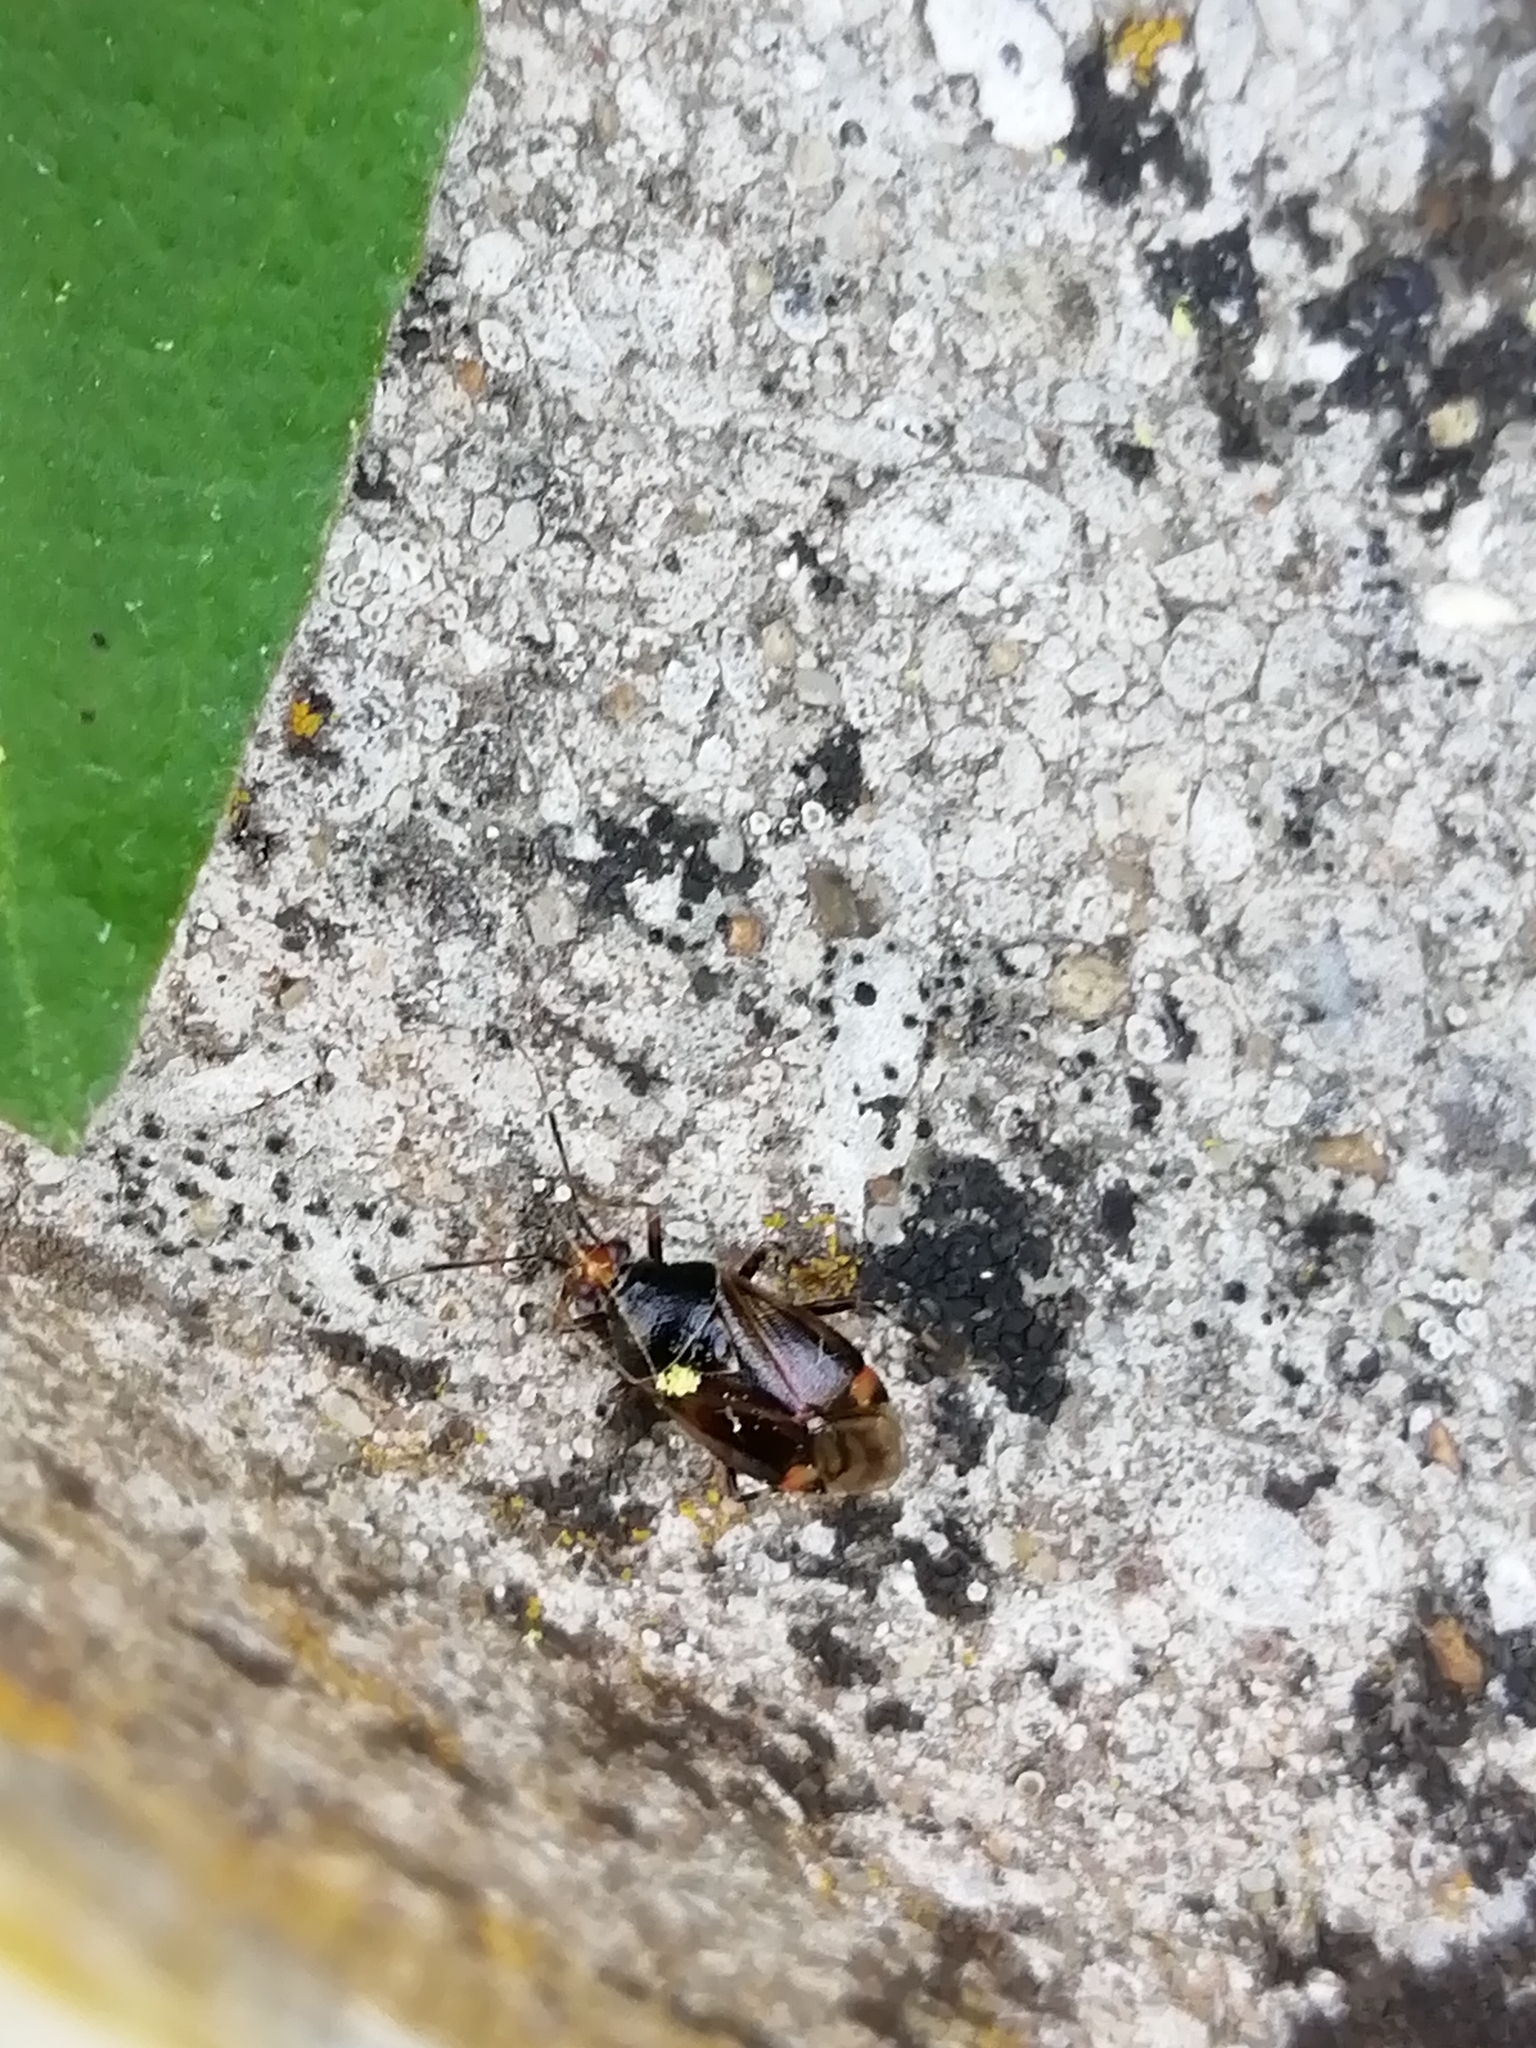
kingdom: Animalia
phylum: Arthropoda
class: Insecta
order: Hemiptera
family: Miridae
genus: Deraeocoris
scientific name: Deraeocoris flavilinea
